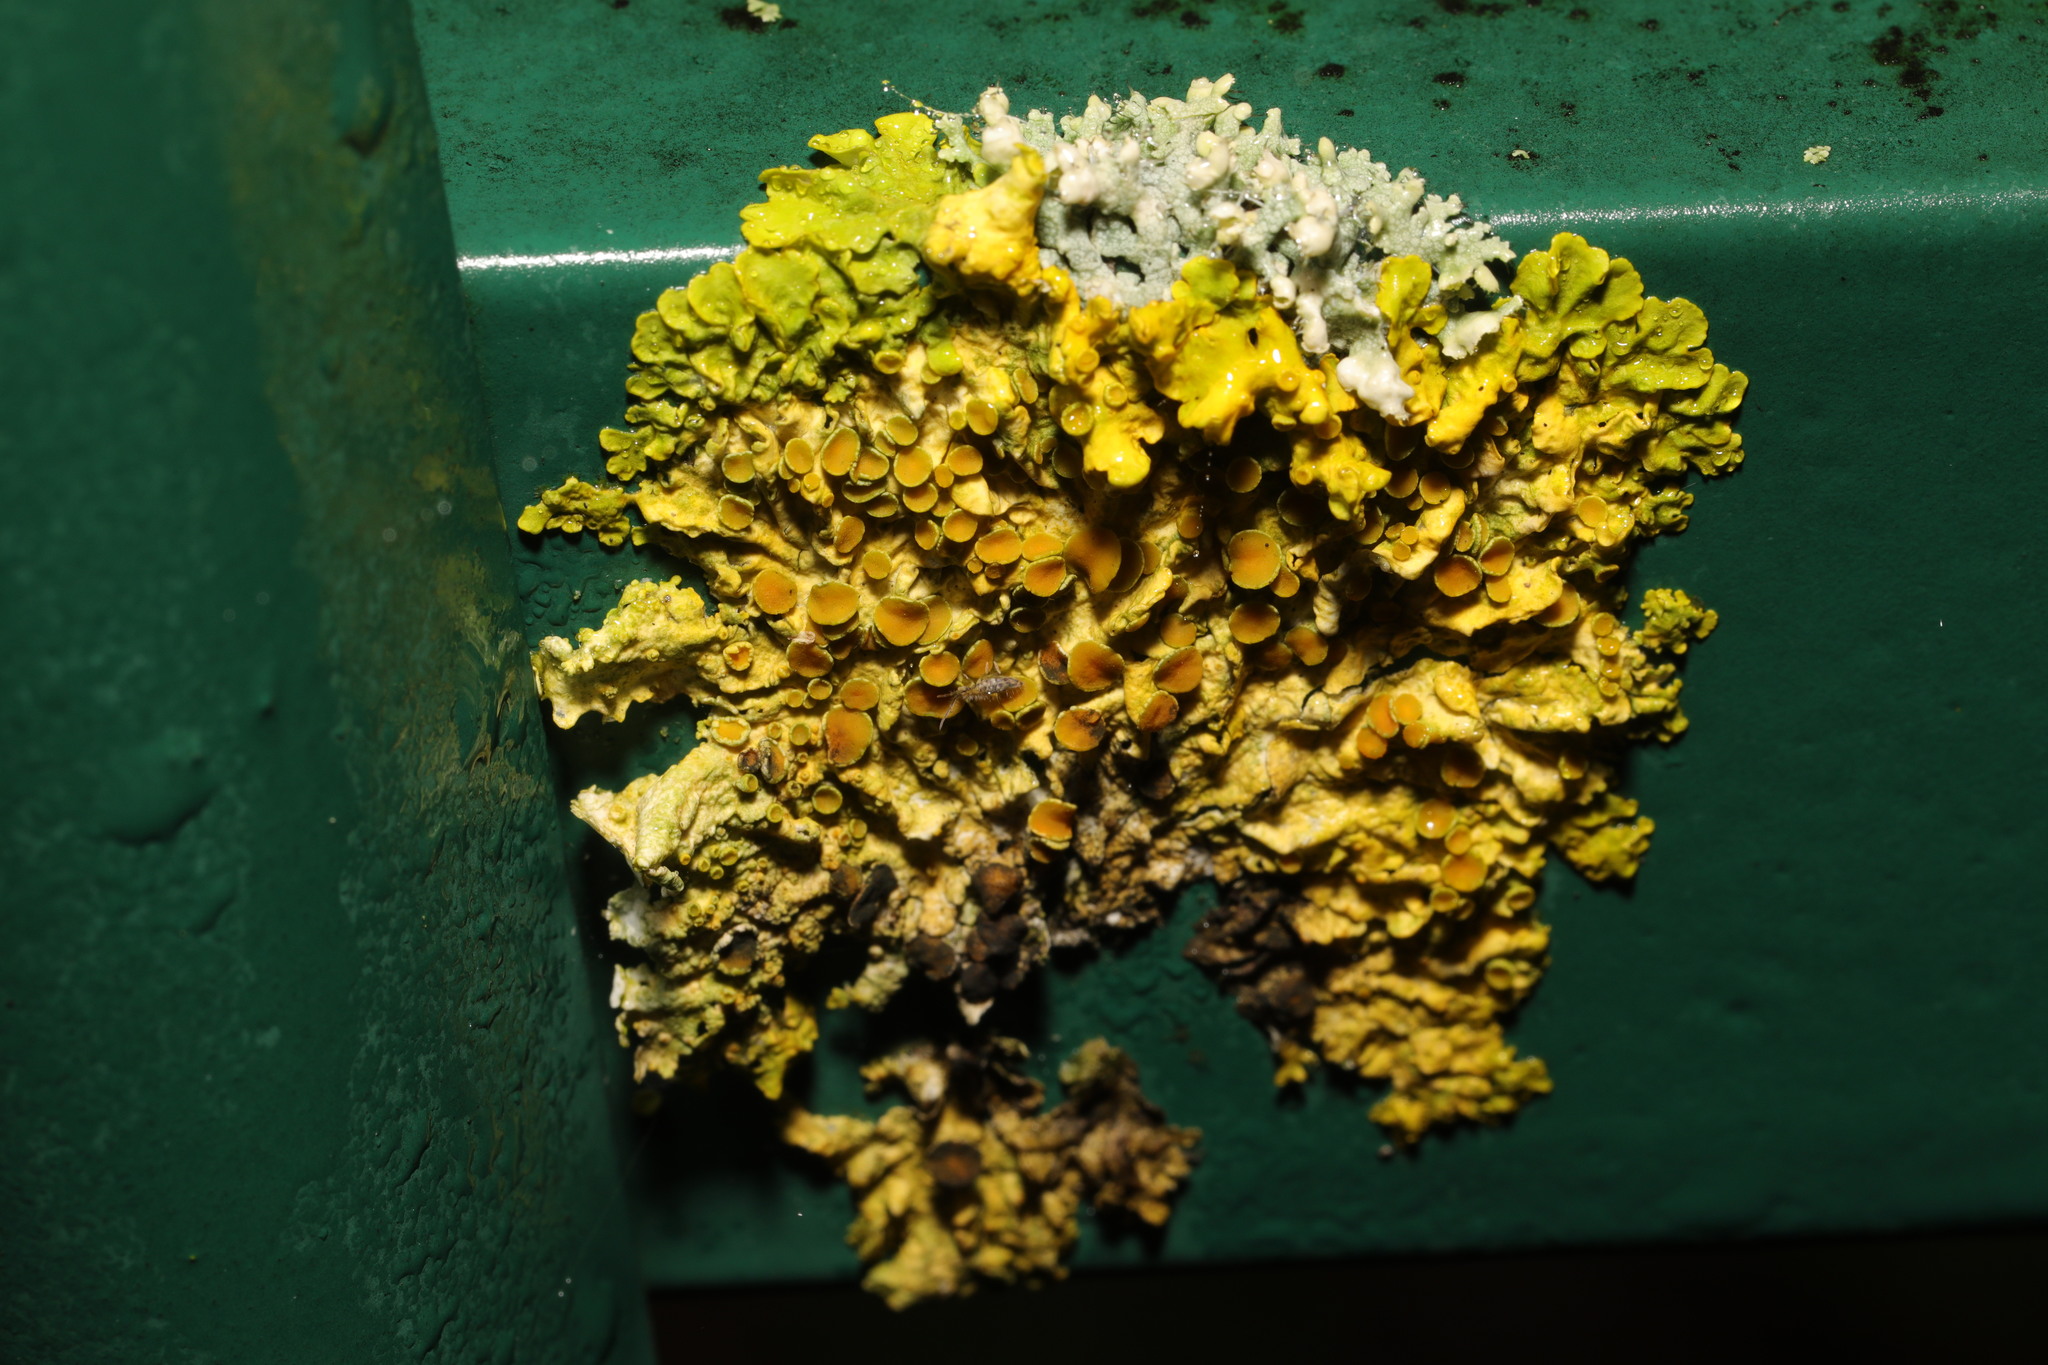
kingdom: Fungi
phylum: Ascomycota
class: Lecanoromycetes
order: Teloschistales
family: Teloschistaceae
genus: Xanthoria
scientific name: Xanthoria parietina
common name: Common orange lichen
